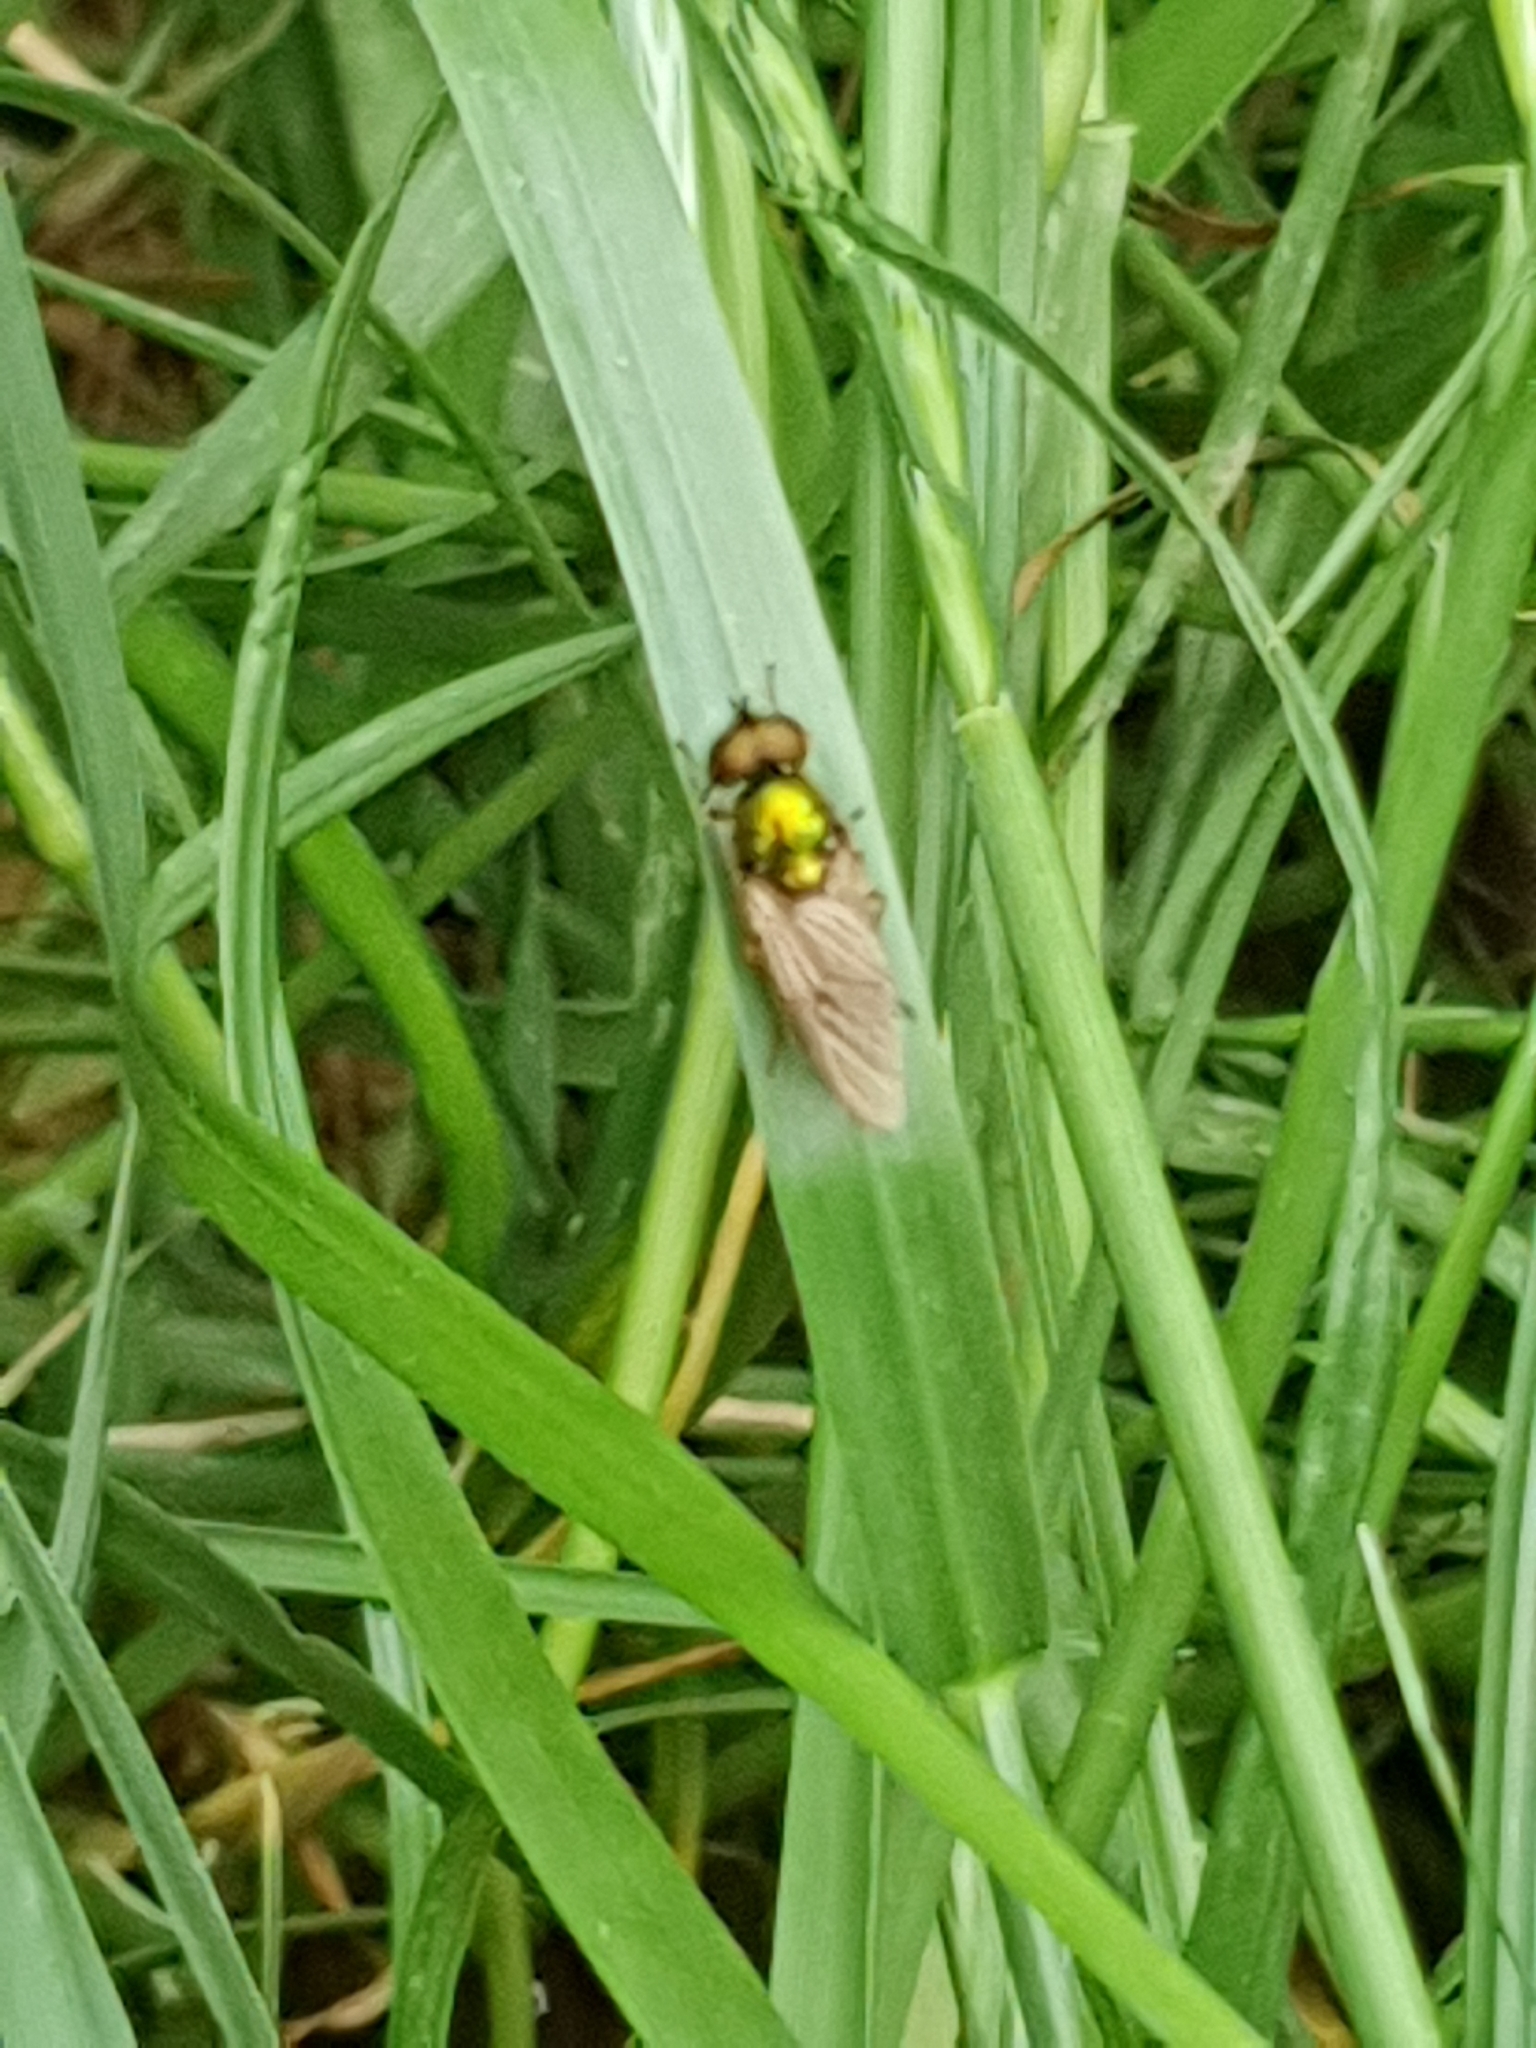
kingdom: Animalia
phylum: Arthropoda
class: Insecta
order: Diptera
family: Stratiomyidae
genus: Chloromyia
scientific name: Chloromyia formosa
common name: Soldier fly
